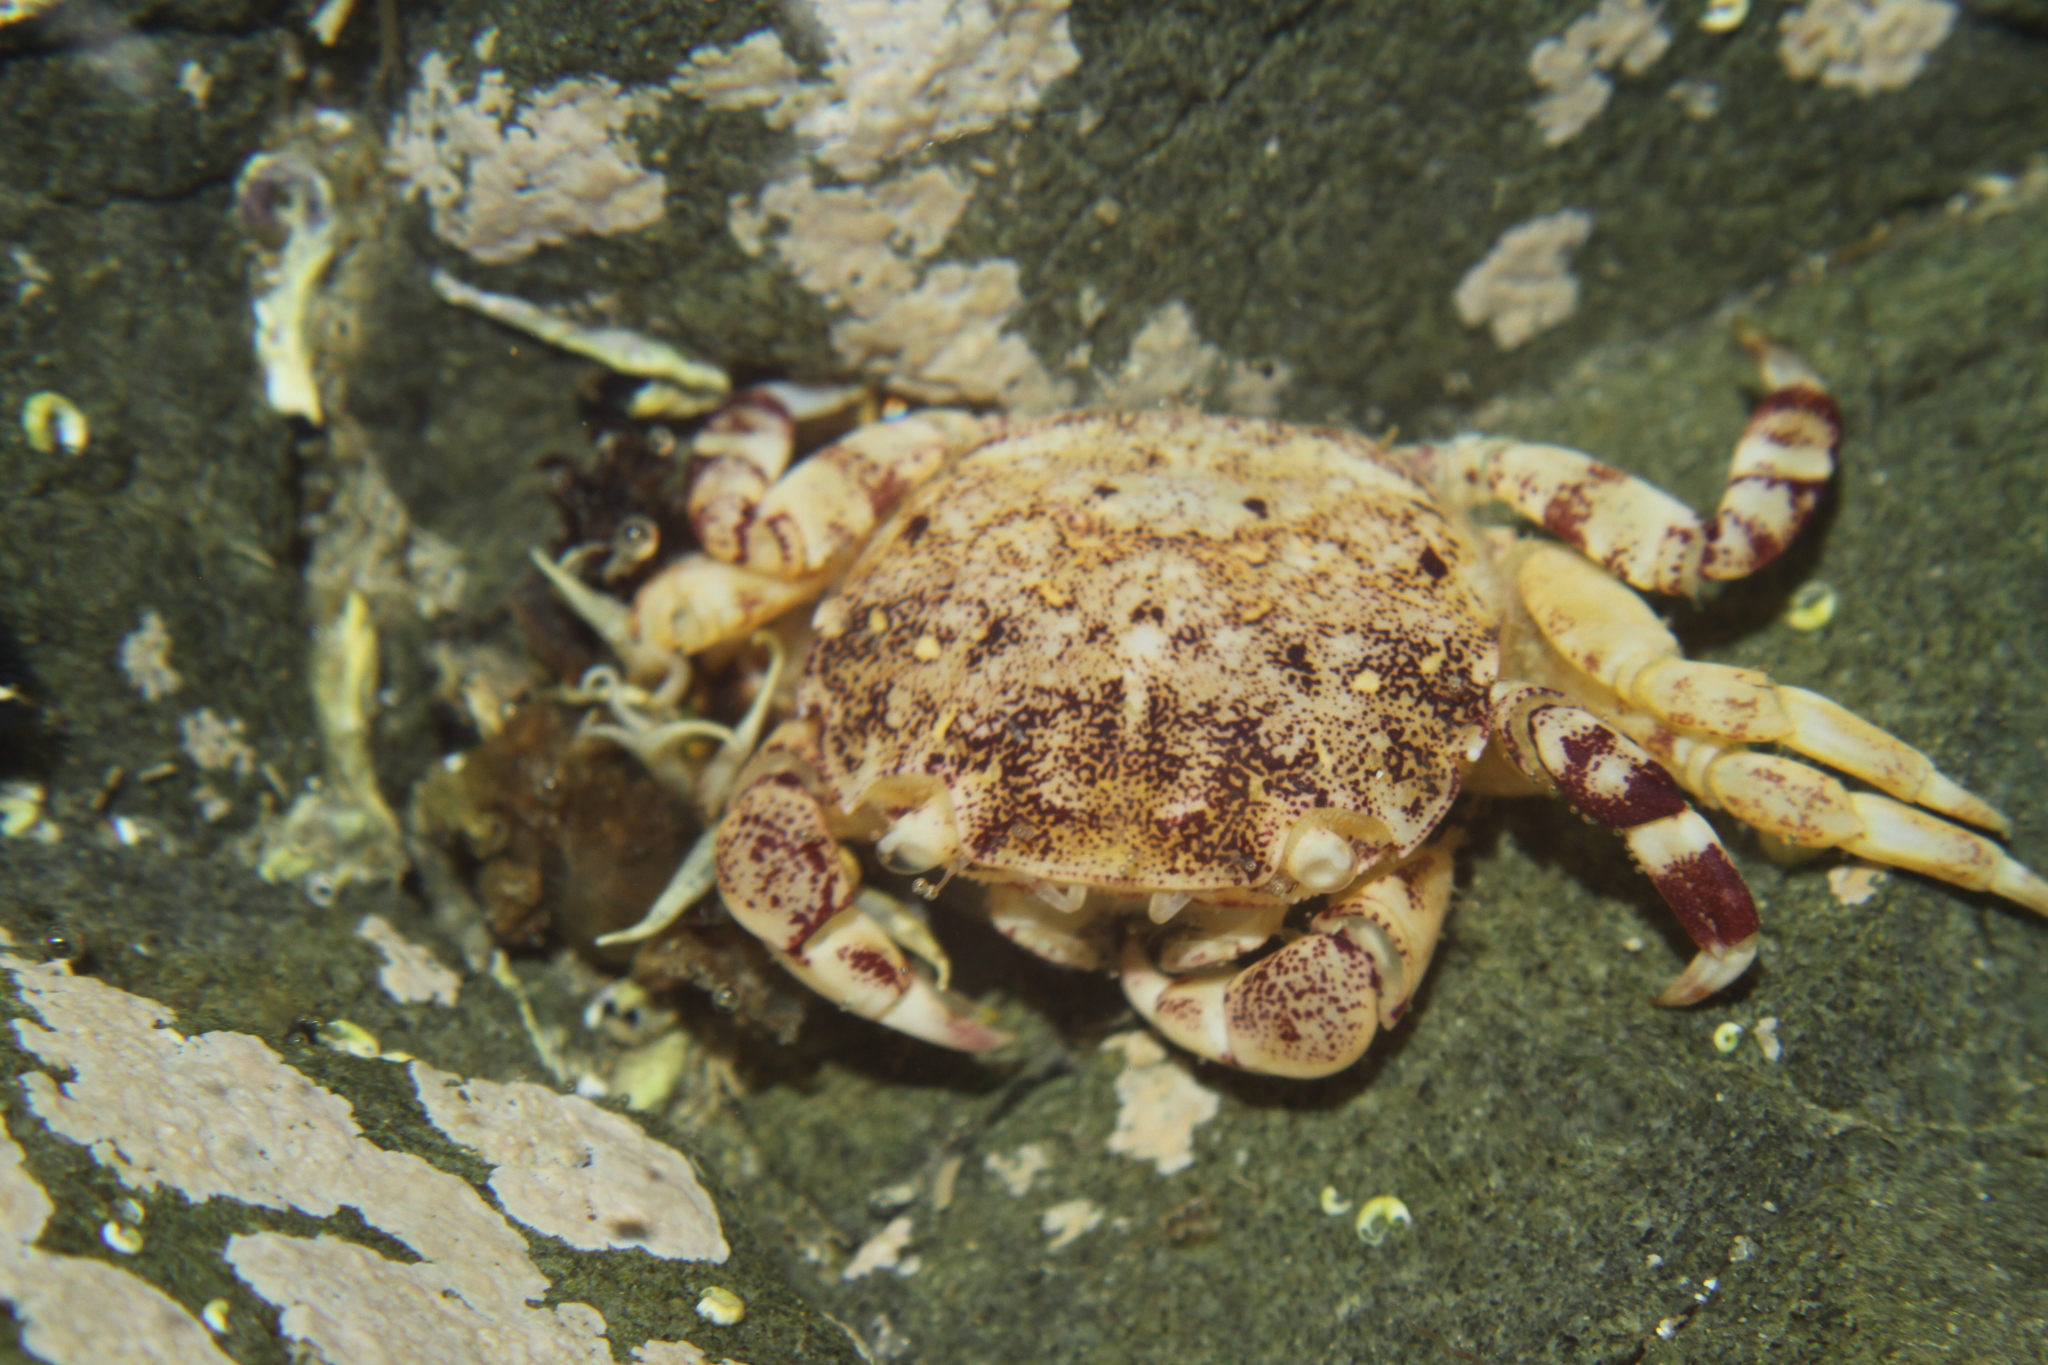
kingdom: Animalia
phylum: Arthropoda
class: Malacostraca
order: Decapoda
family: Varunidae
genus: Hemigrapsus
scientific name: Hemigrapsus sexdentatus
